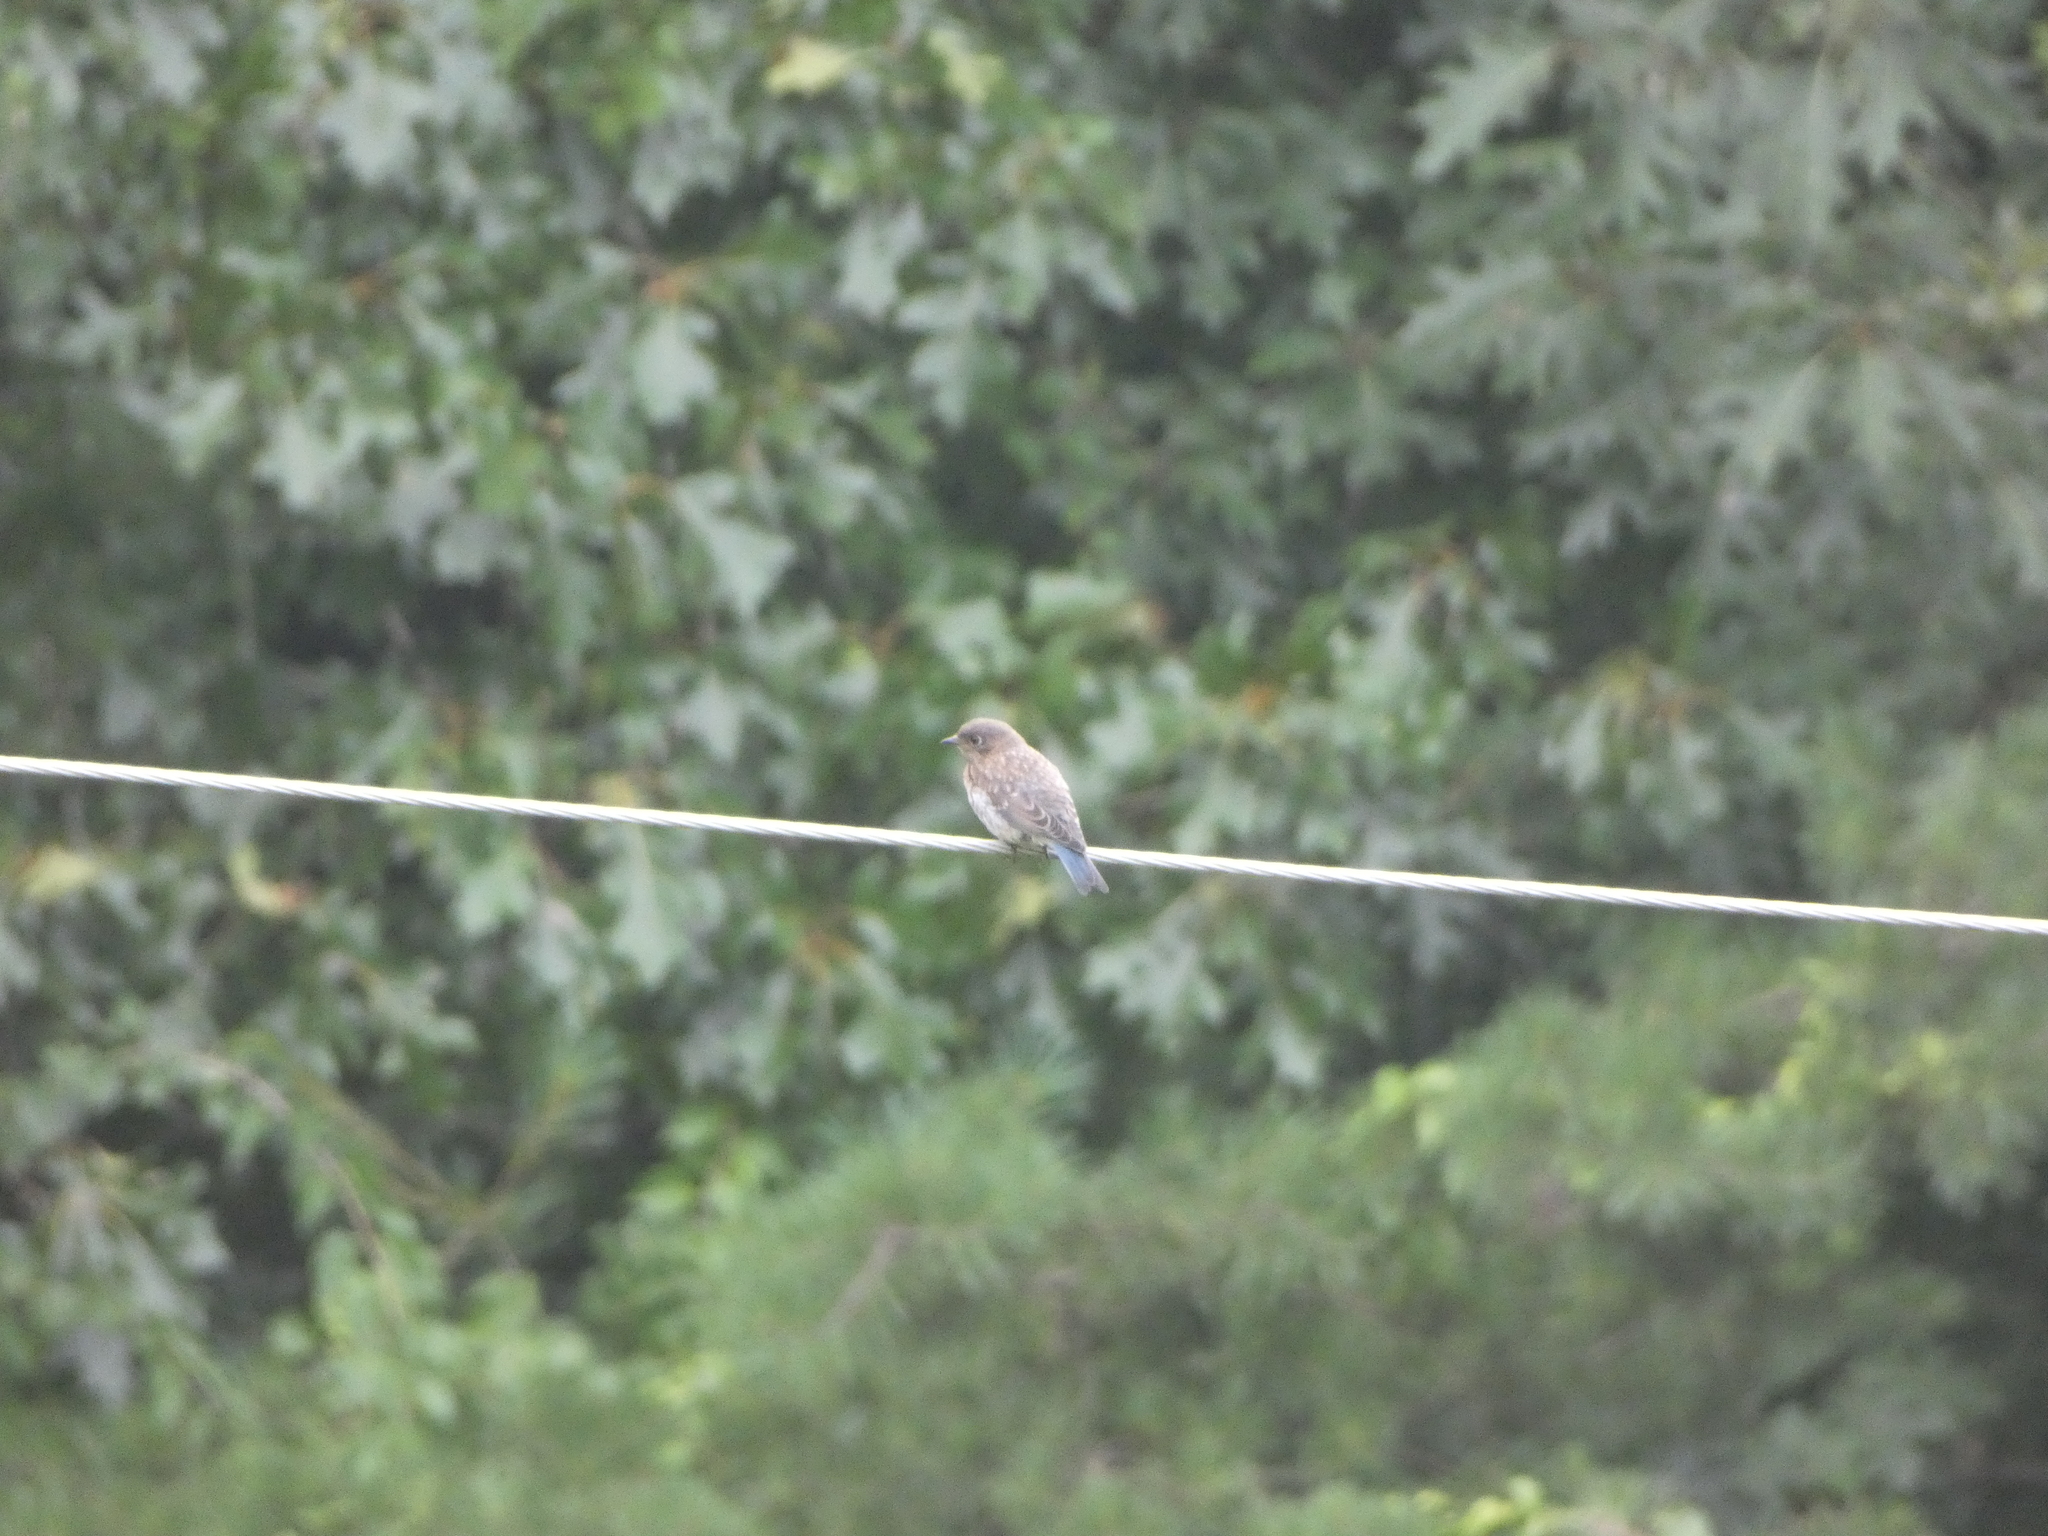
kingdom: Animalia
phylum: Chordata
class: Aves
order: Passeriformes
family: Turdidae
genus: Sialia
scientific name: Sialia sialis
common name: Eastern bluebird
